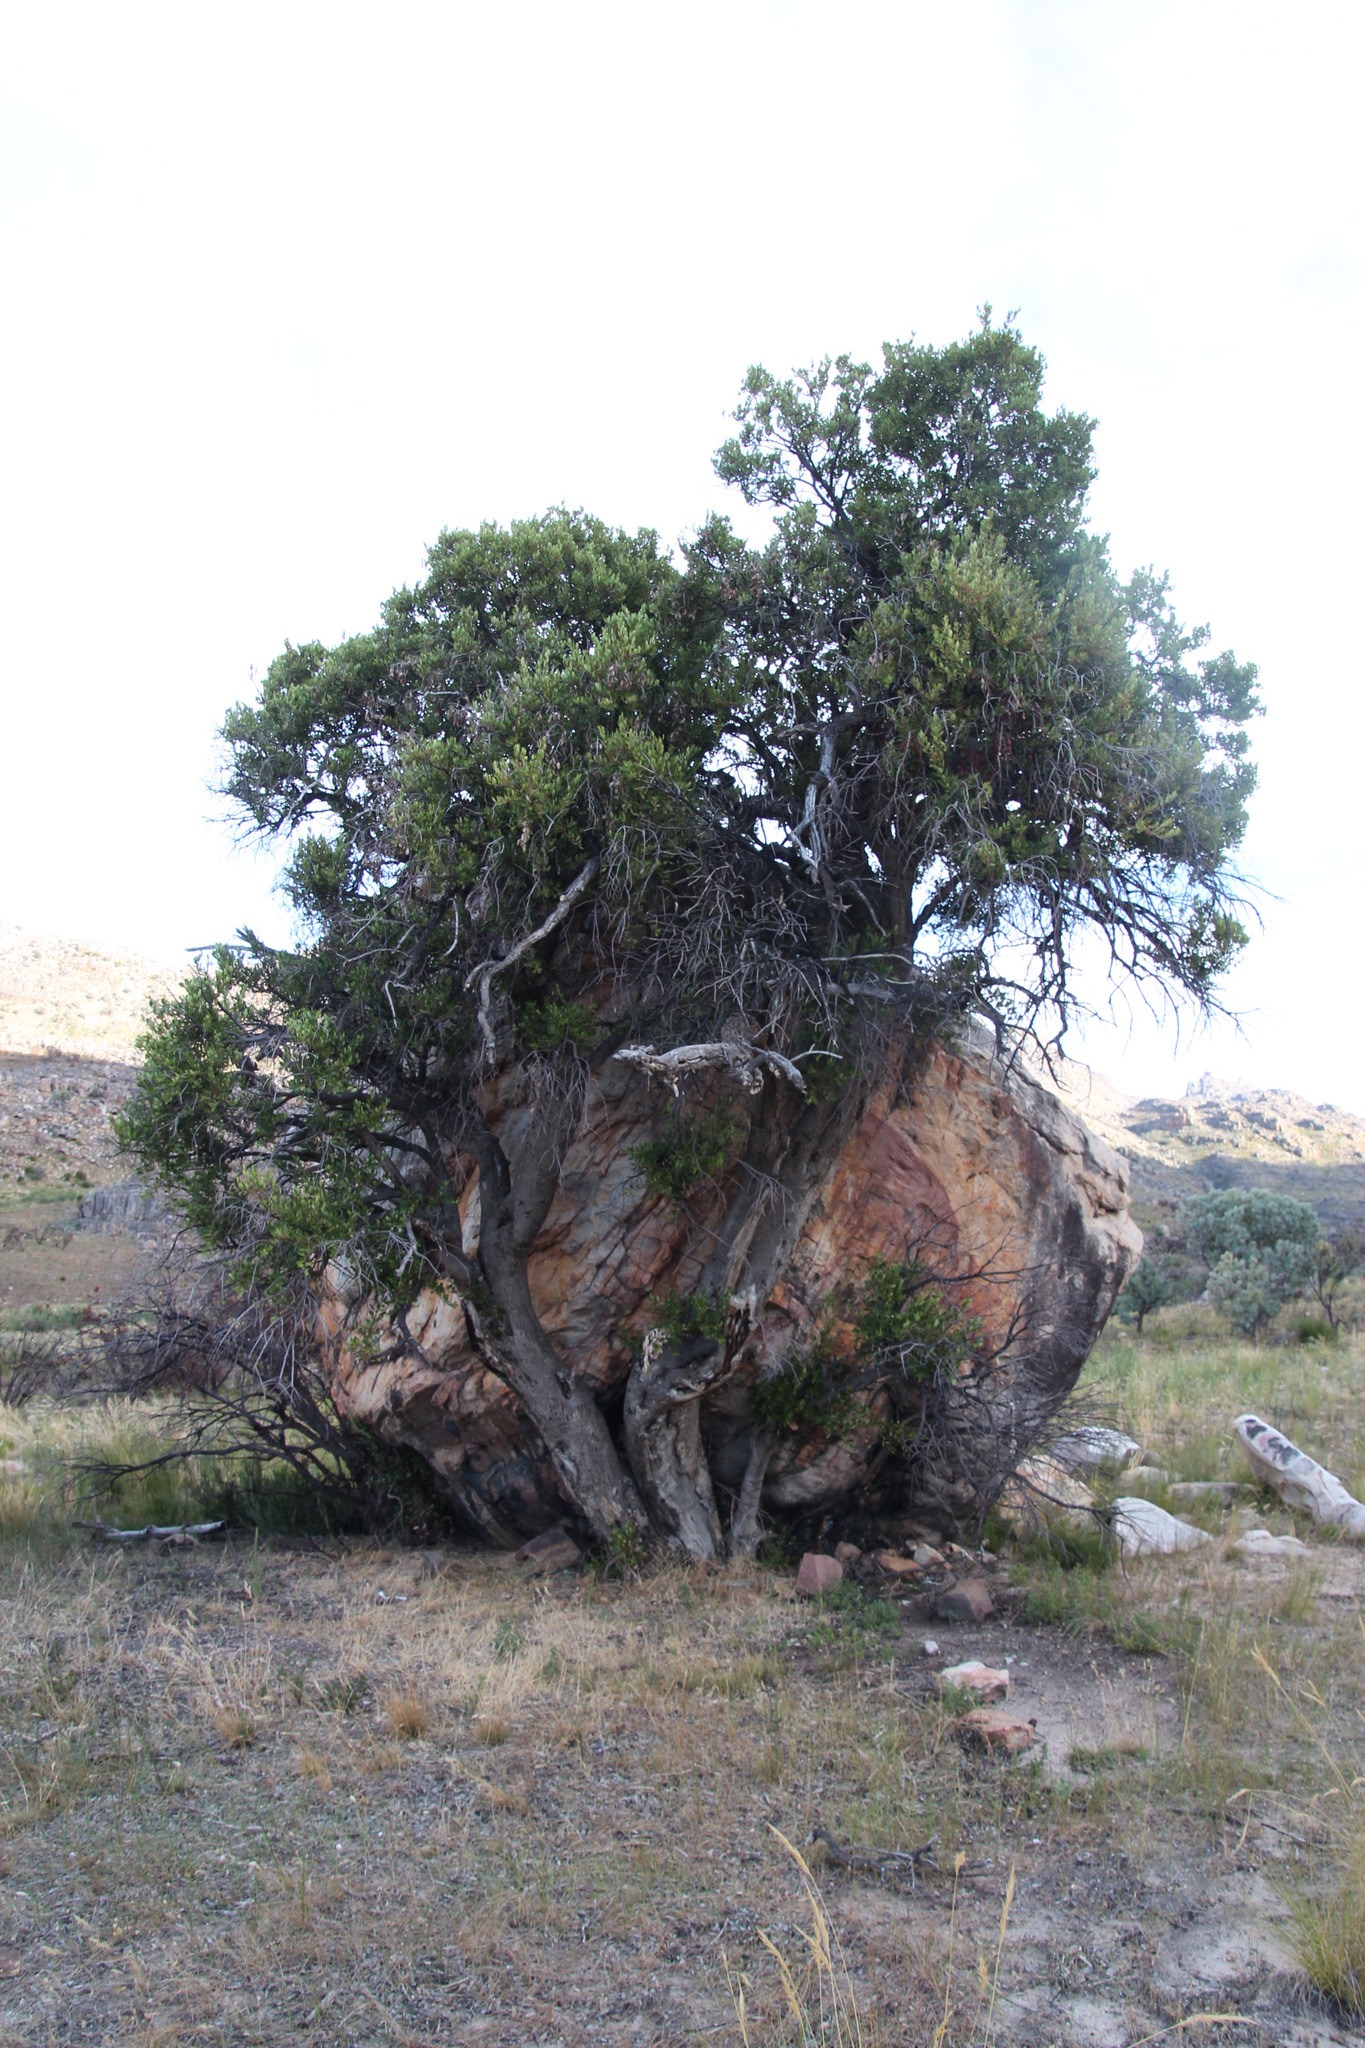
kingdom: Animalia
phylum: Chordata
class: Mammalia
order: Carnivora
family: Felidae
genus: Panthera
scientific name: Panthera pardus
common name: Leopard
